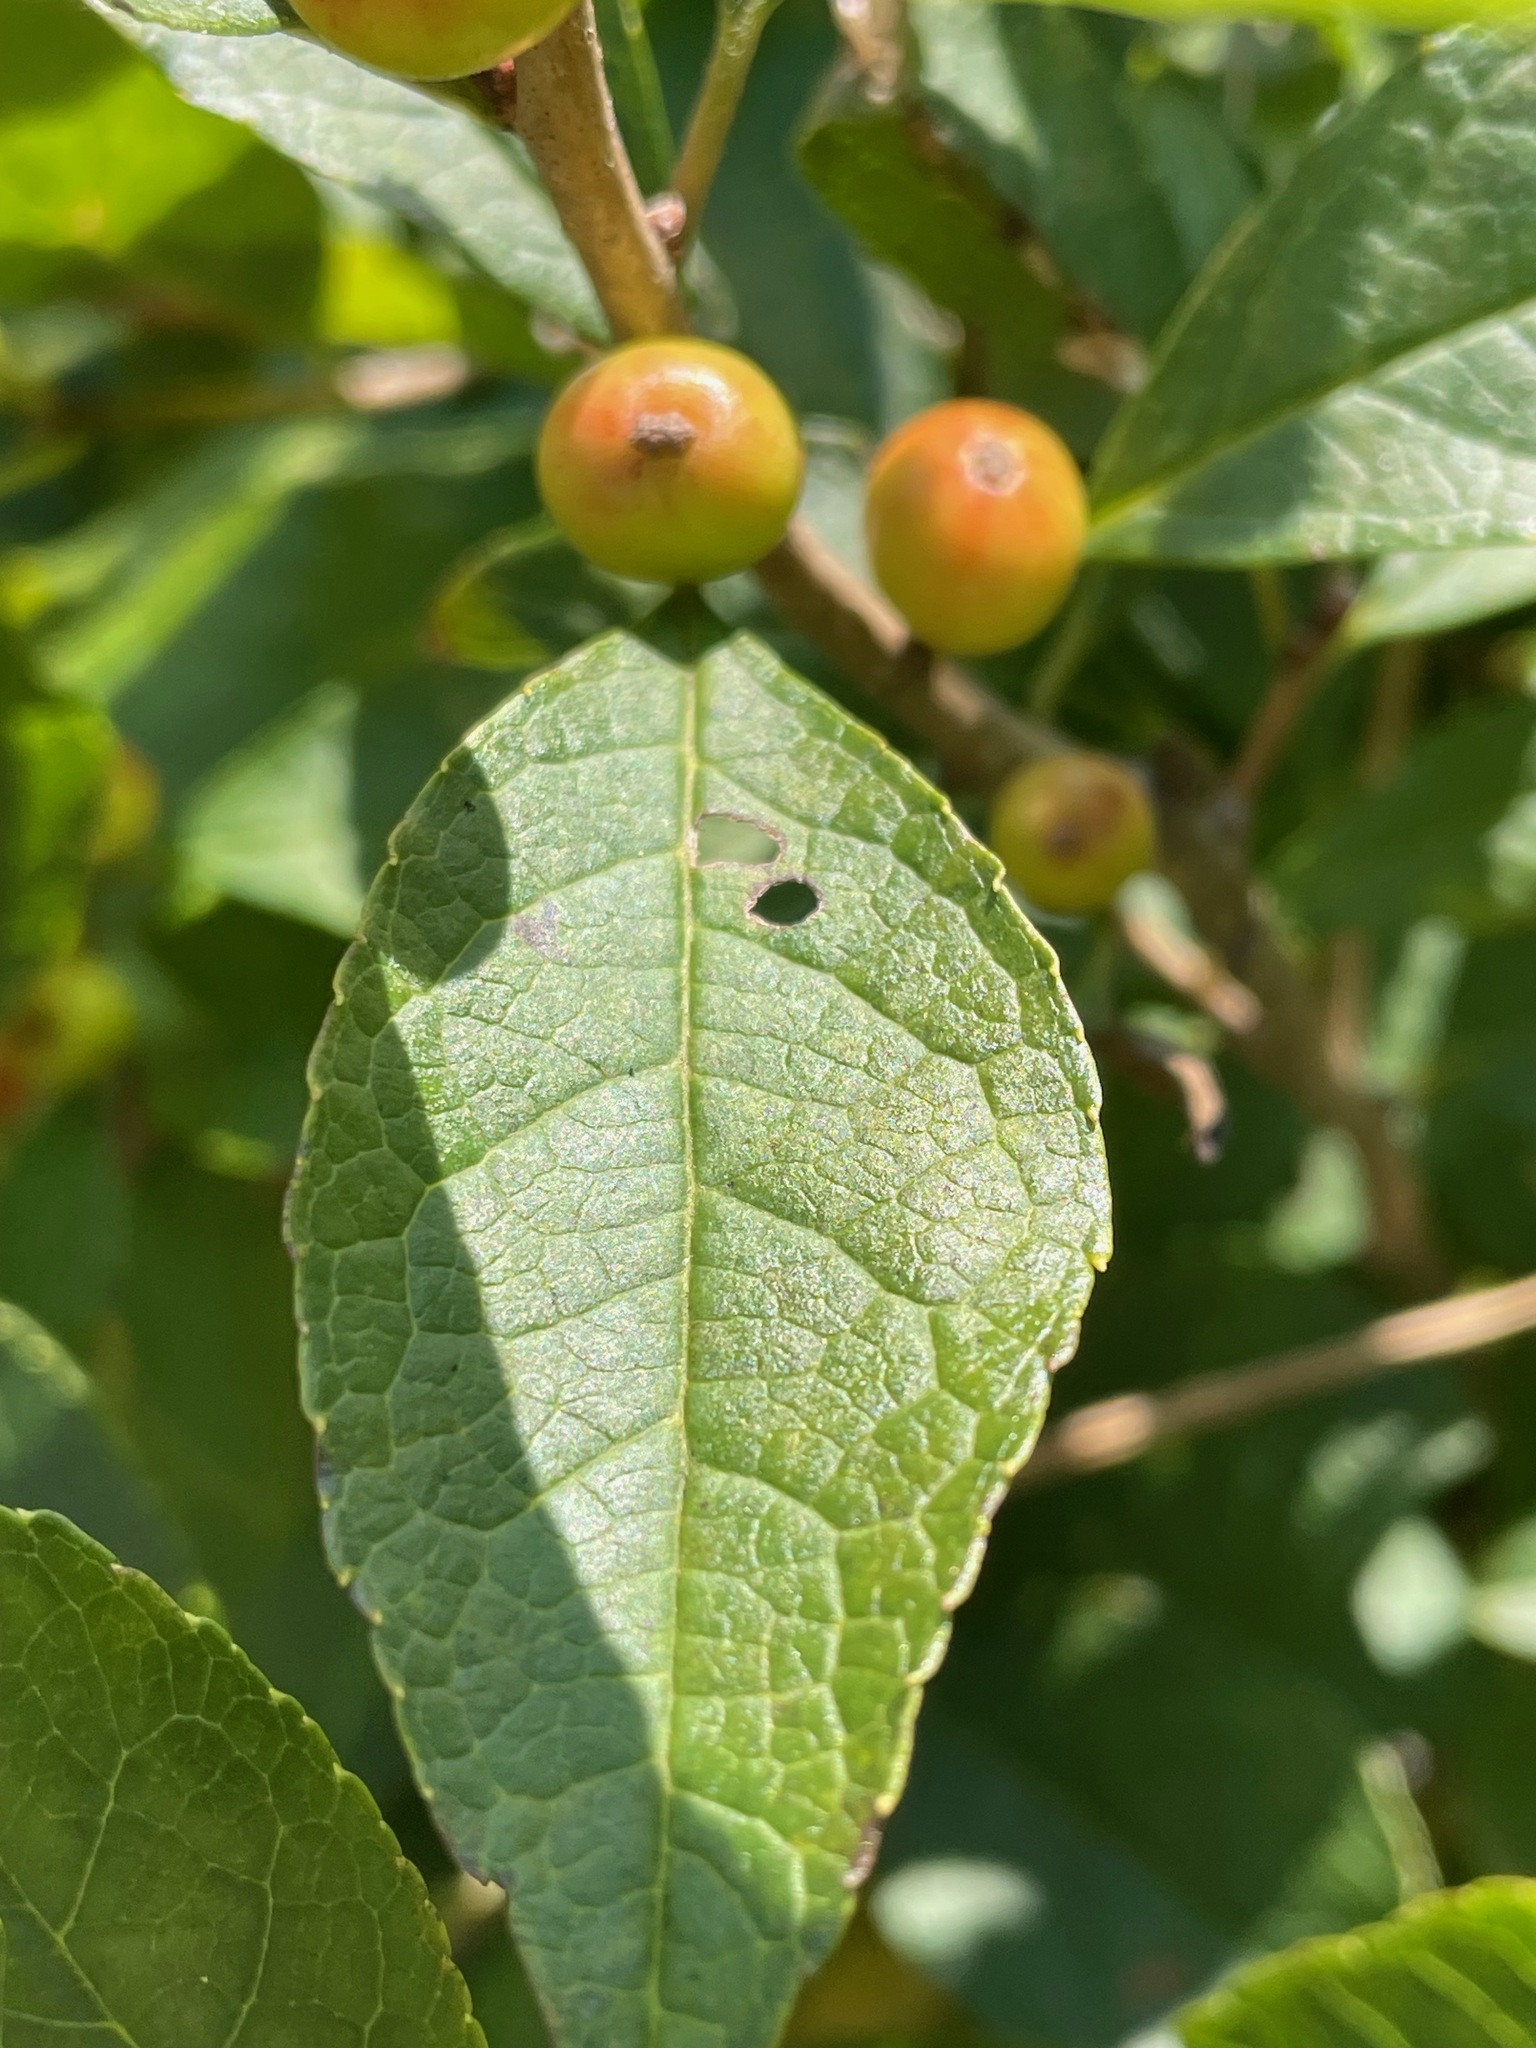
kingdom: Plantae
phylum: Tracheophyta
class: Magnoliopsida
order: Aquifoliales
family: Aquifoliaceae
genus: Ilex
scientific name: Ilex verticillata
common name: Virginia winterberry
